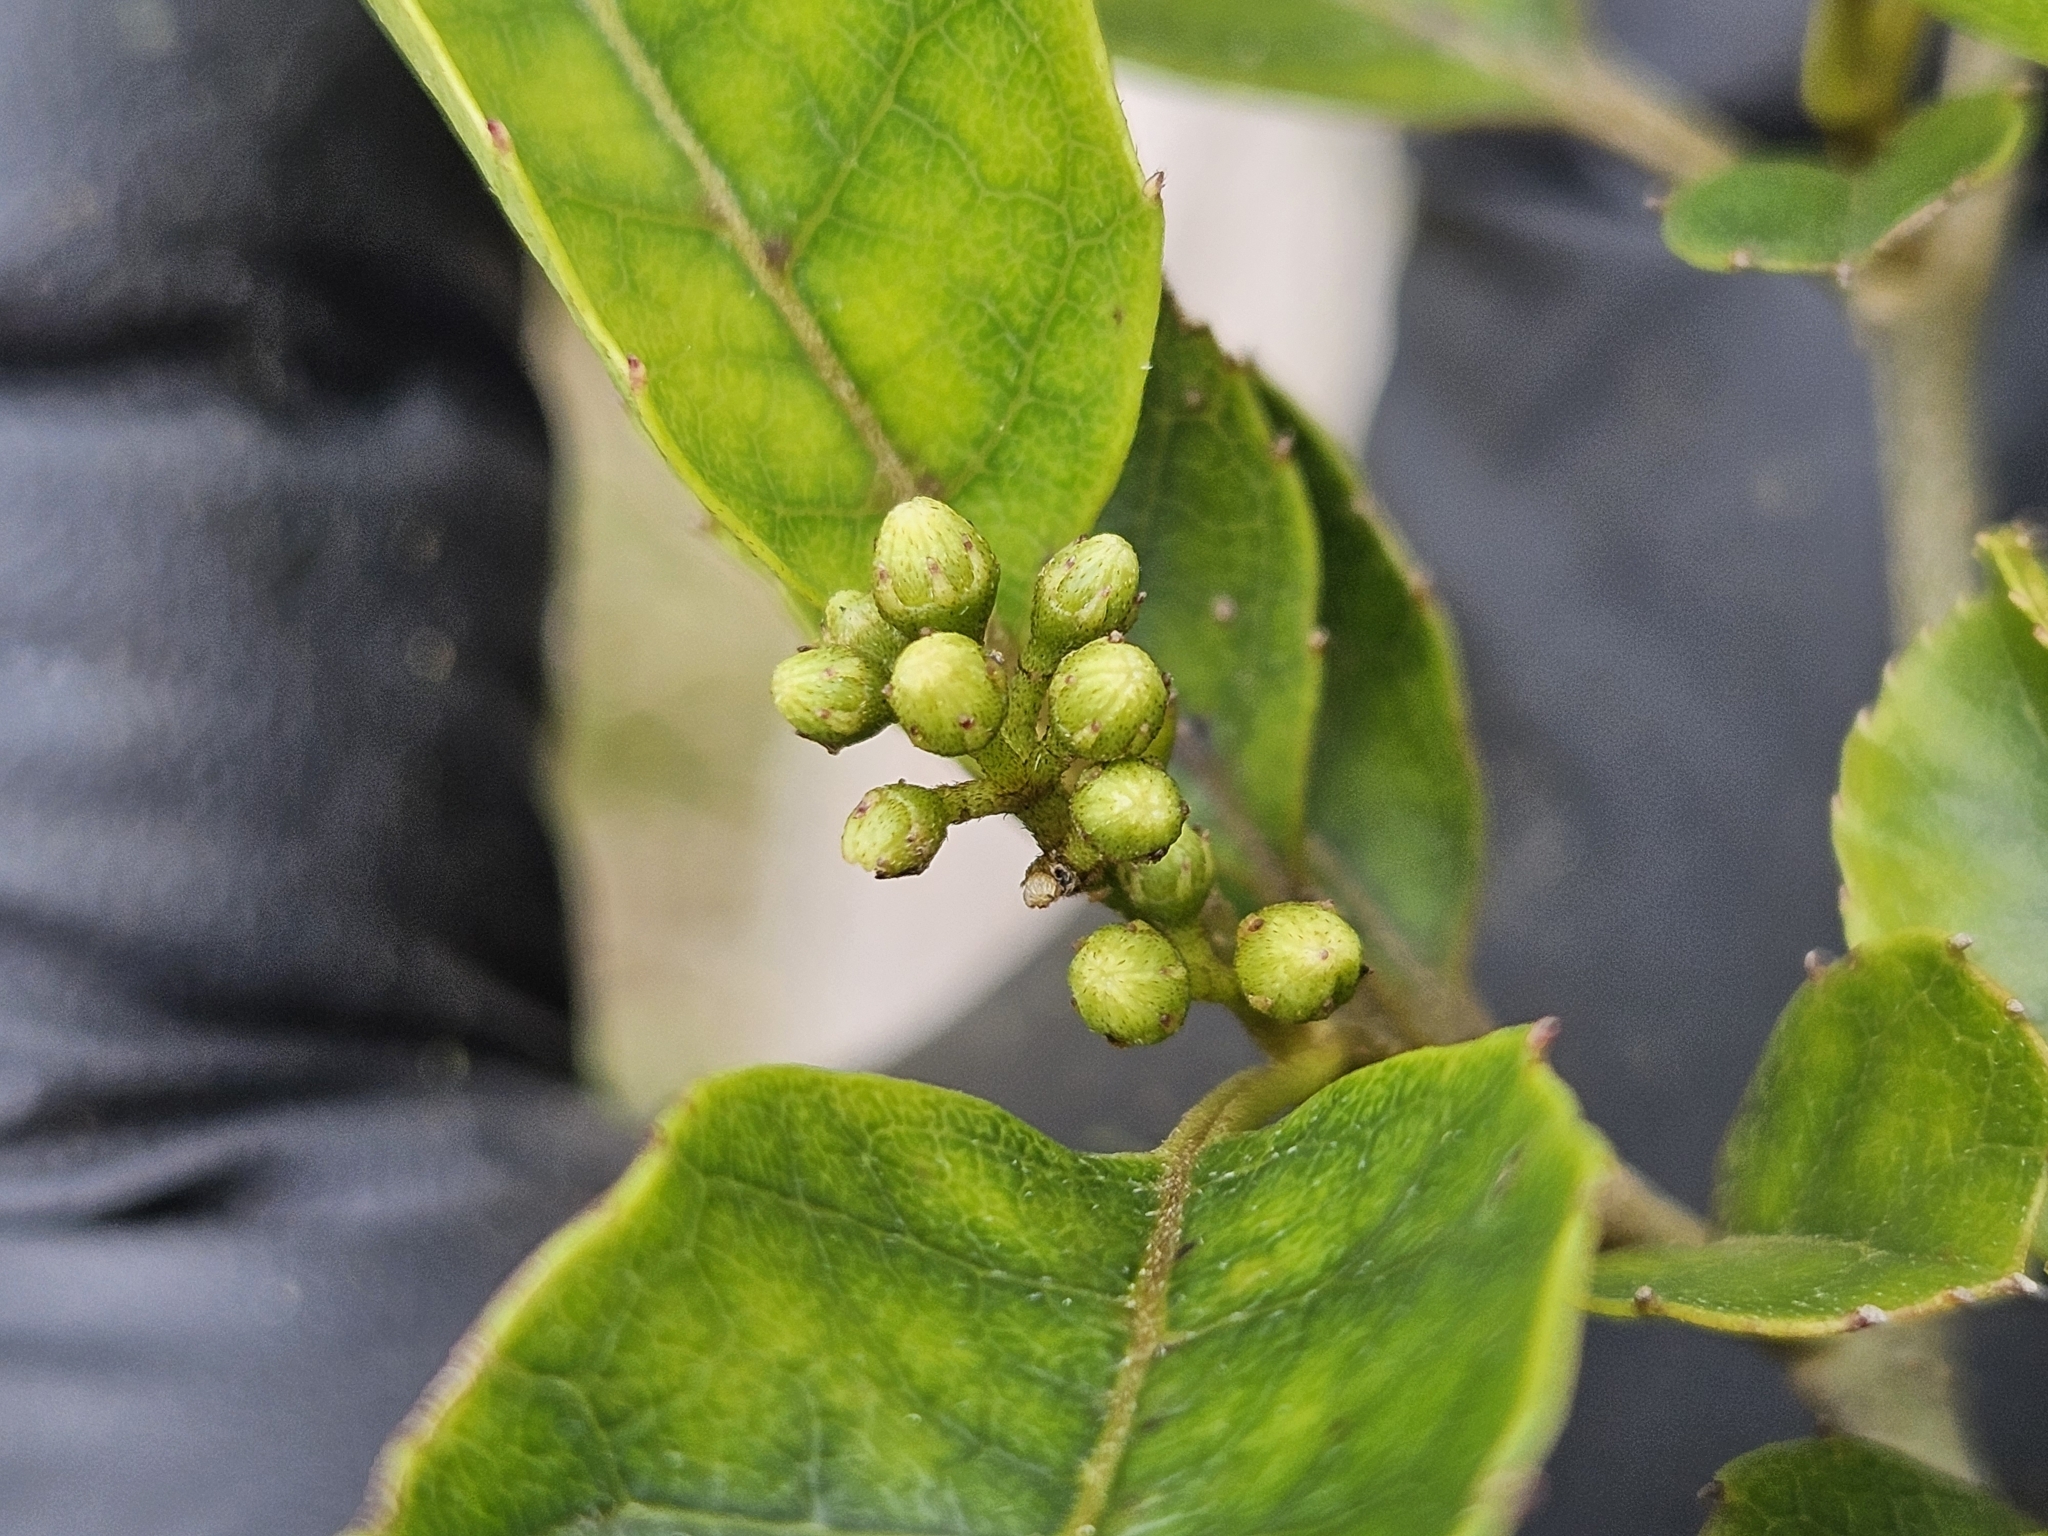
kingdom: Plantae
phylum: Tracheophyta
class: Magnoliopsida
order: Asterales
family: Rousseaceae
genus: Carpodetus
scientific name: Carpodetus serratus
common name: White mapau
